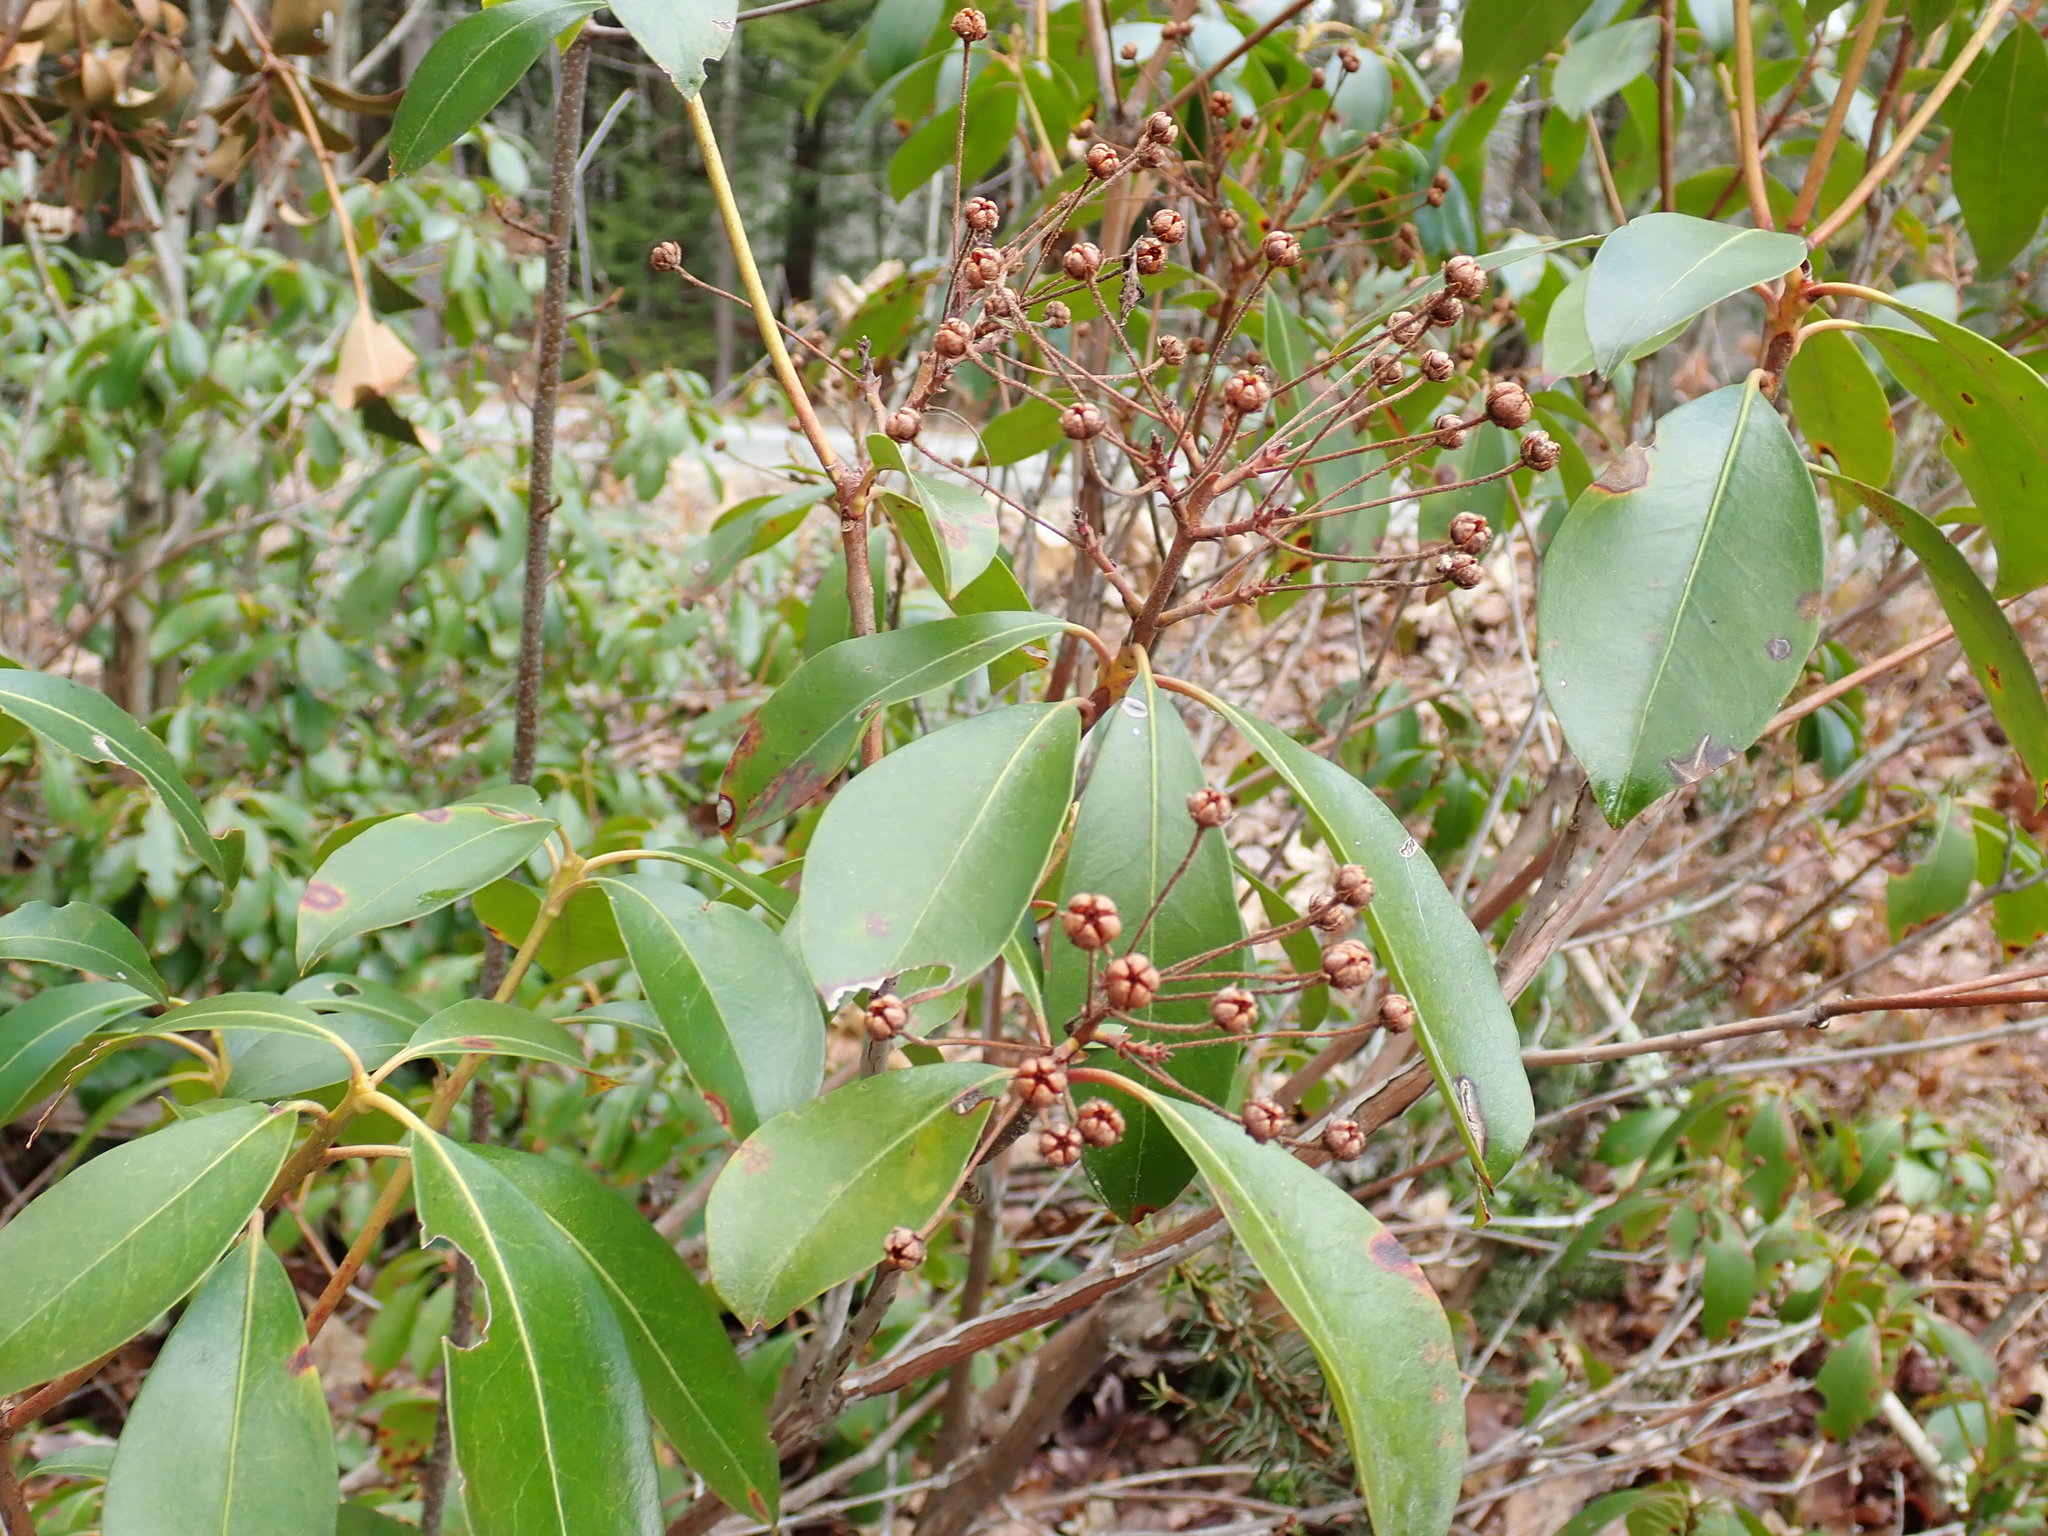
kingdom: Plantae
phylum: Tracheophyta
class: Magnoliopsida
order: Ericales
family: Ericaceae
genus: Kalmia
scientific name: Kalmia latifolia
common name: Mountain-laurel
